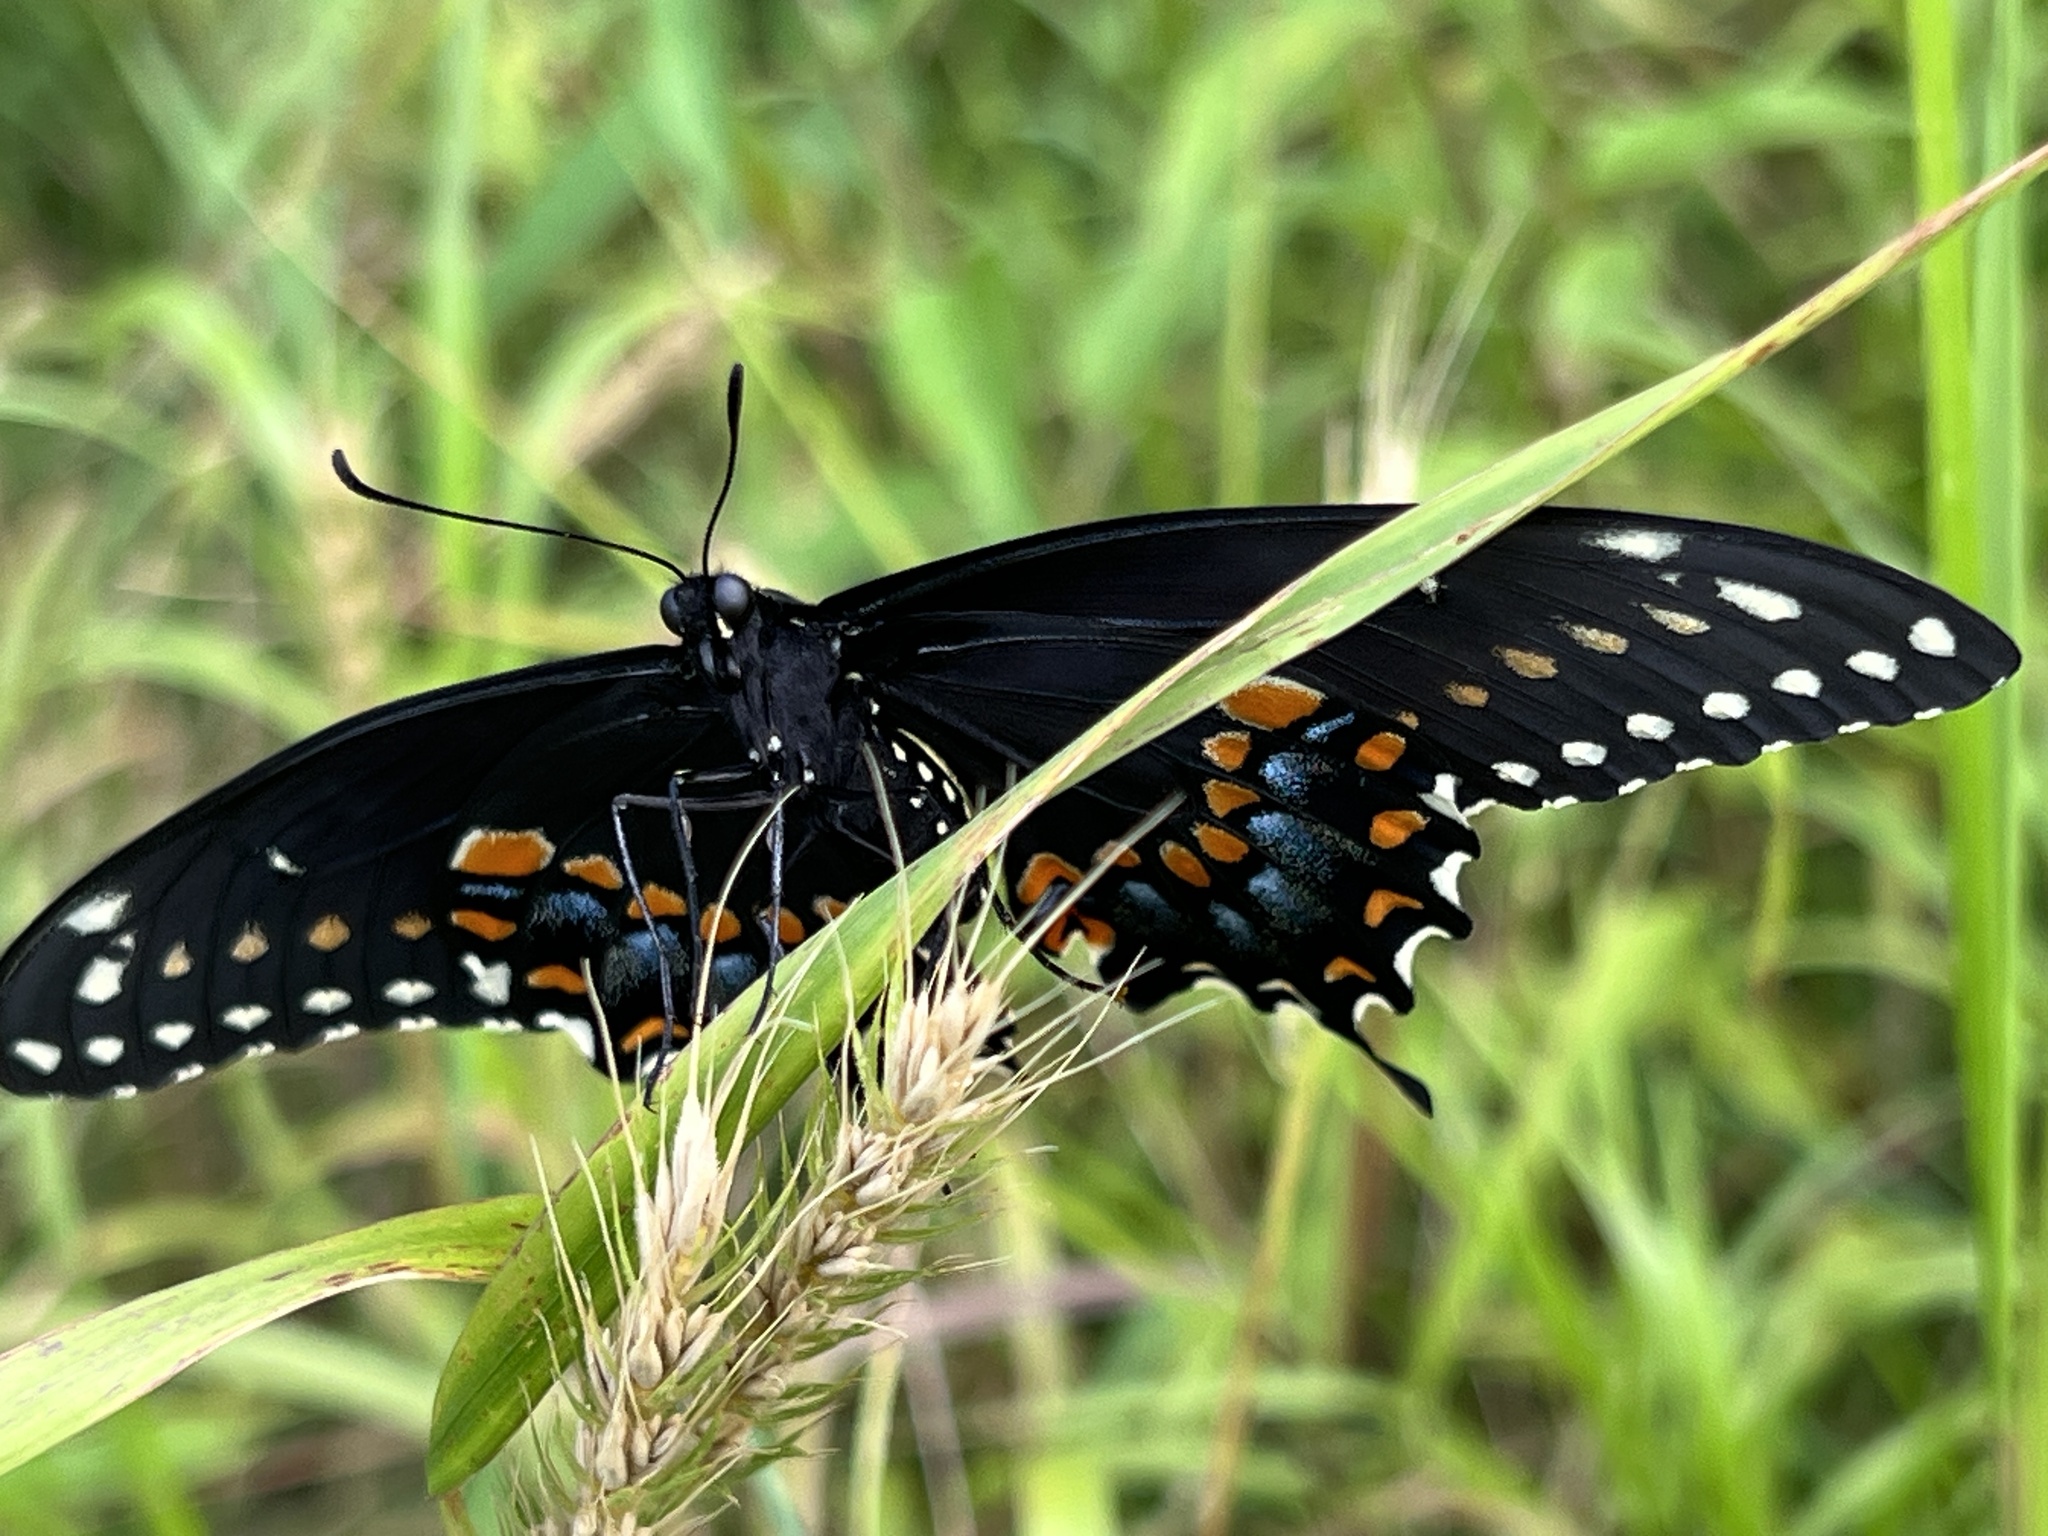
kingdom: Animalia
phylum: Arthropoda
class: Insecta
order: Lepidoptera
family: Papilionidae
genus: Papilio
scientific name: Papilio polyxenes
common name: Black swallowtail
